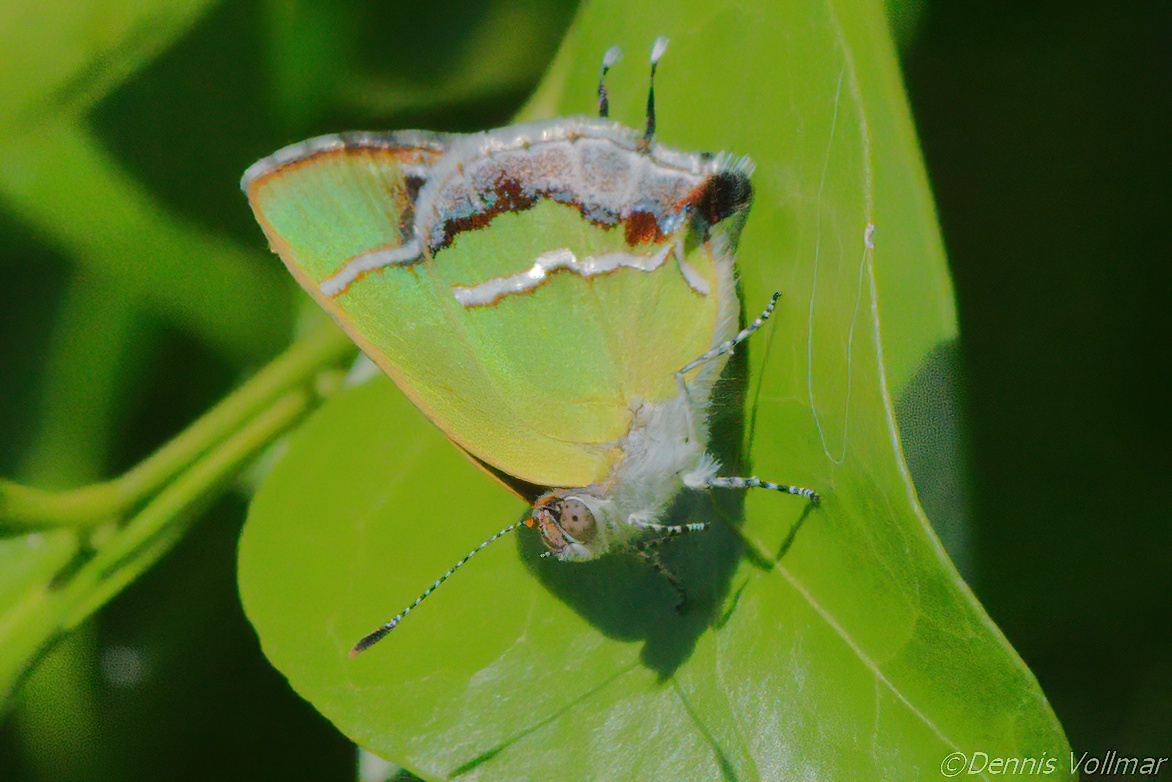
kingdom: Animalia
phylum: Arthropoda
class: Insecta
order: Lepidoptera
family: Lycaenidae
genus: Chlorostrymon
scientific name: Chlorostrymon simaethis
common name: Silver-banded hairstreak
